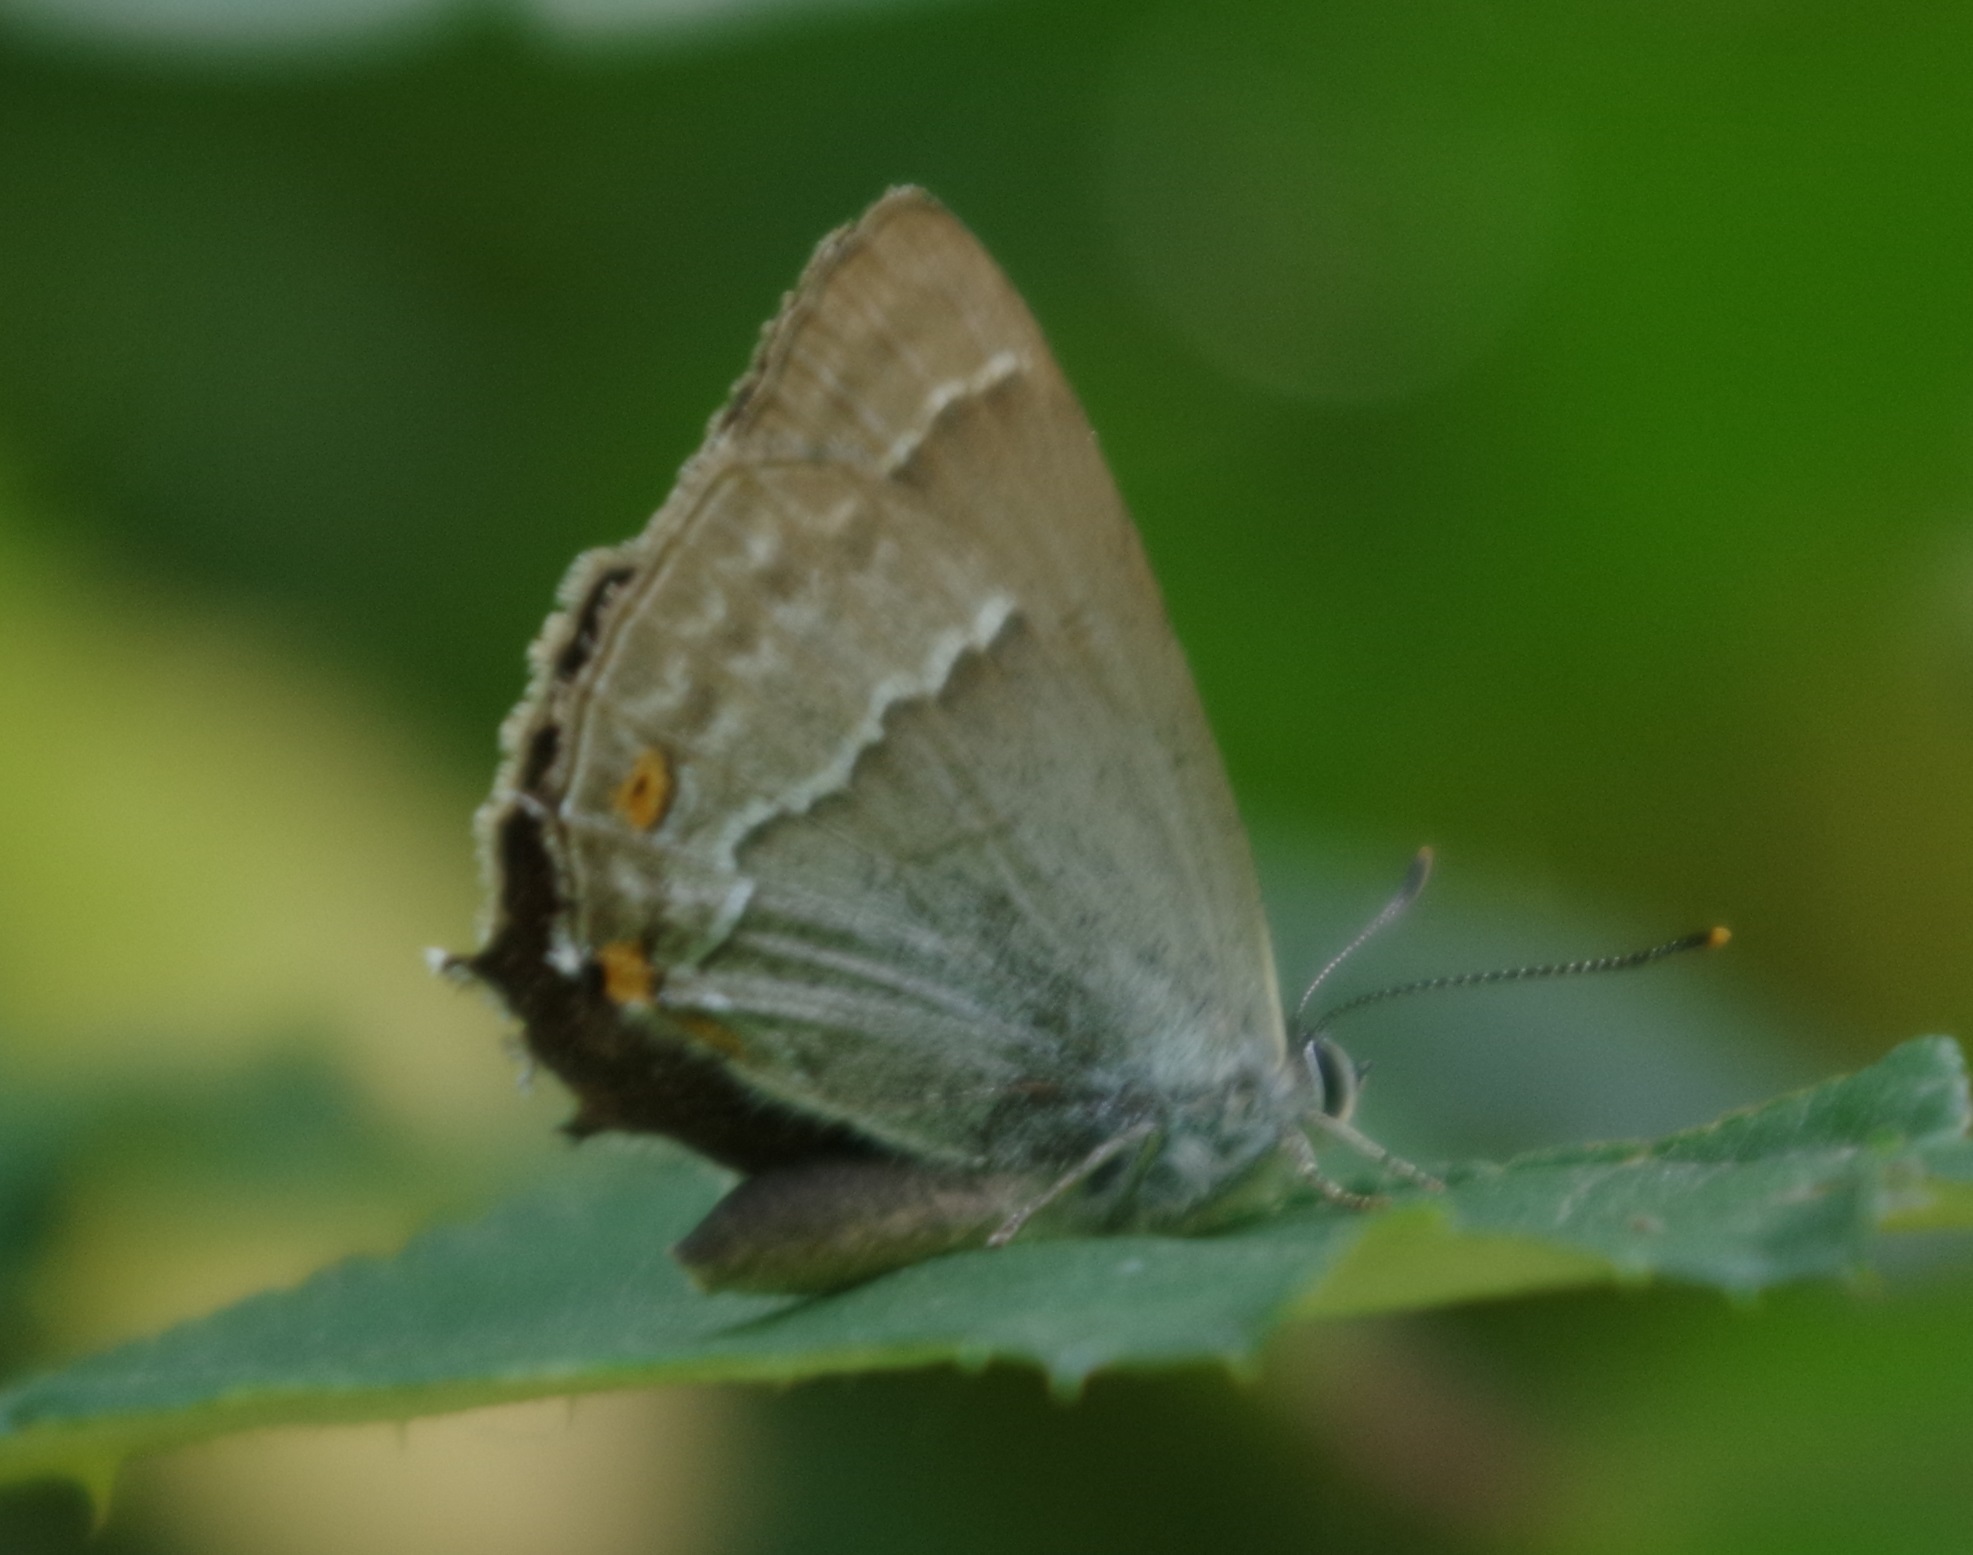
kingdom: Animalia
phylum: Arthropoda
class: Insecta
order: Lepidoptera
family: Lycaenidae
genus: Quercusia
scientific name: Quercusia quercus
